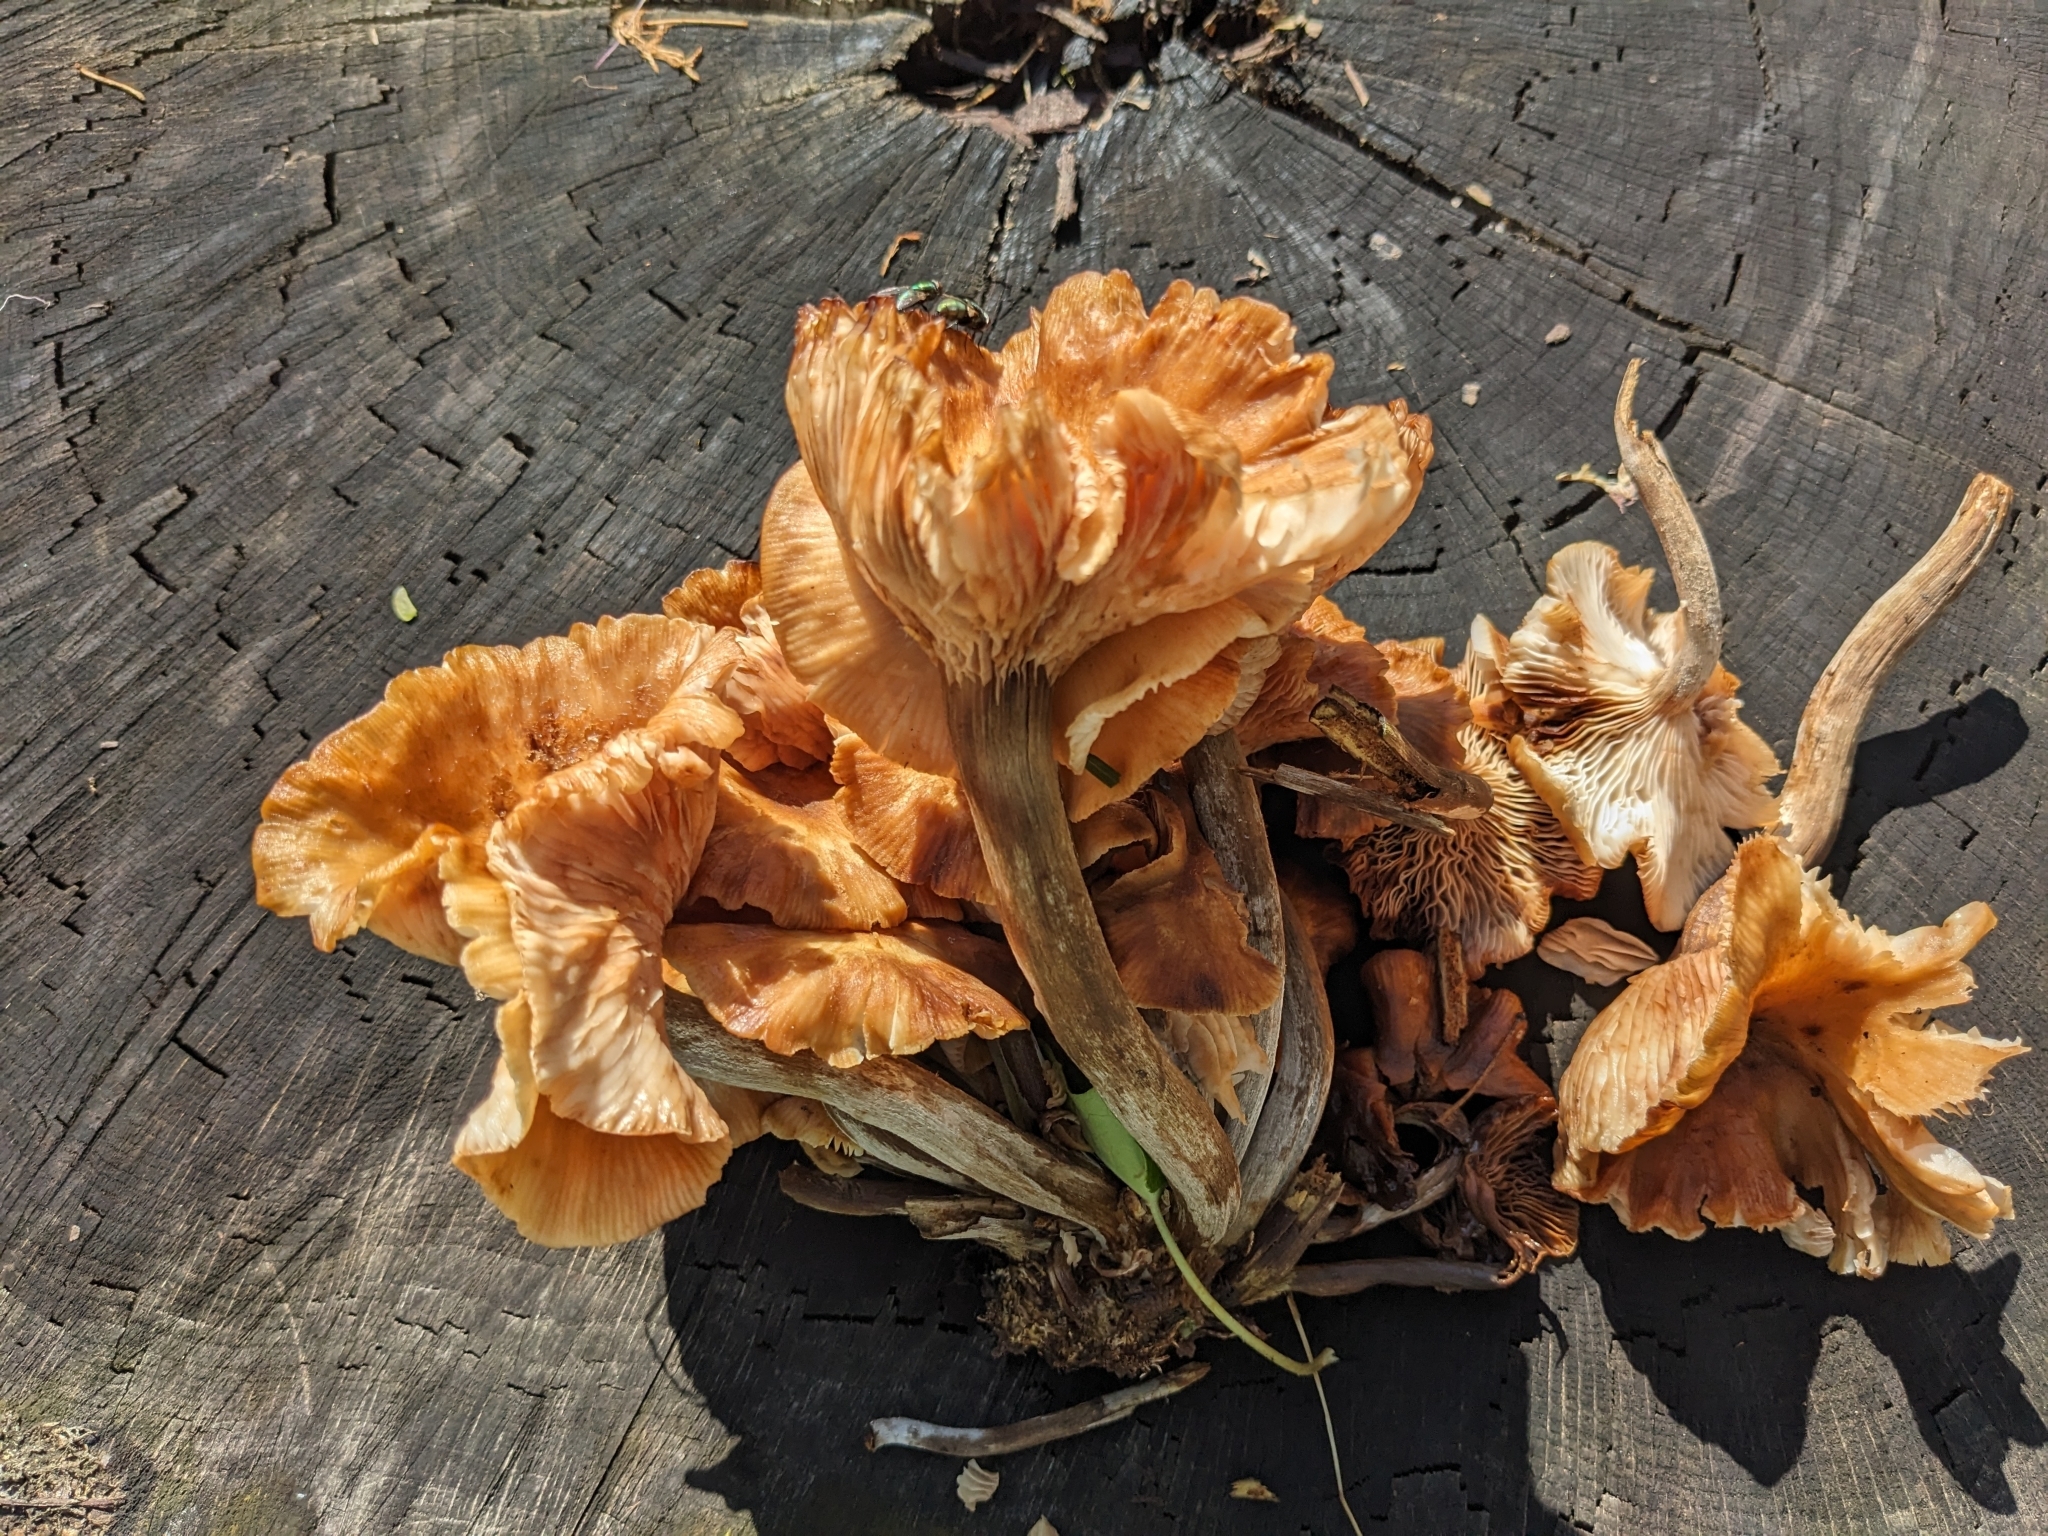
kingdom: Fungi
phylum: Basidiomycota
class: Agaricomycetes
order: Agaricales
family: Physalacriaceae
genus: Desarmillaria
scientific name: Desarmillaria caespitosa
